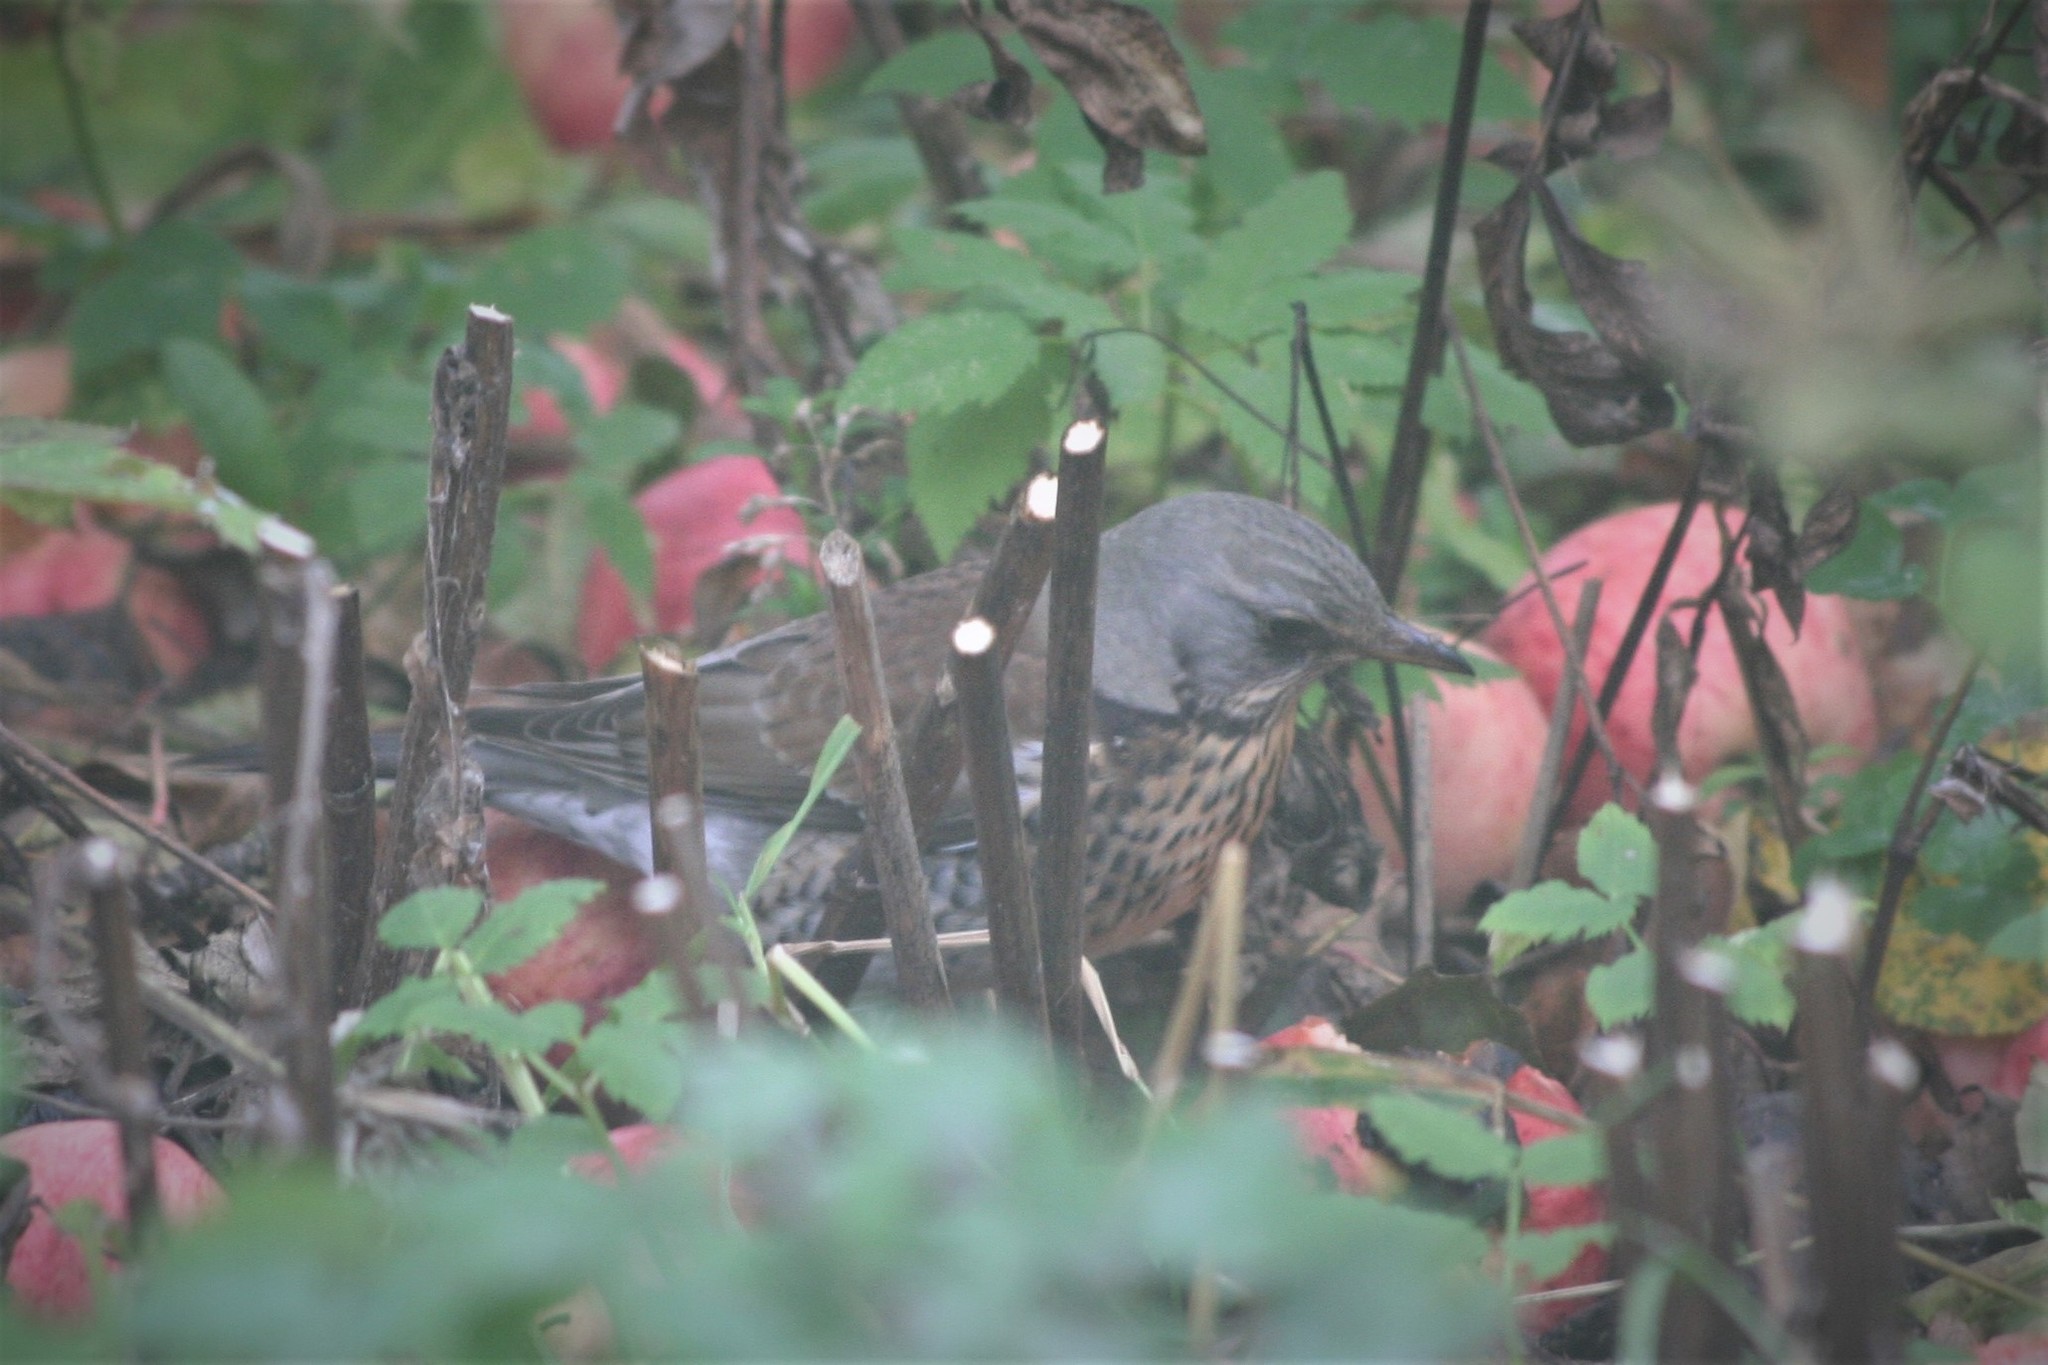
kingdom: Animalia
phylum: Chordata
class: Aves
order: Passeriformes
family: Turdidae
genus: Turdus
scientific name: Turdus pilaris
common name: Fieldfare
